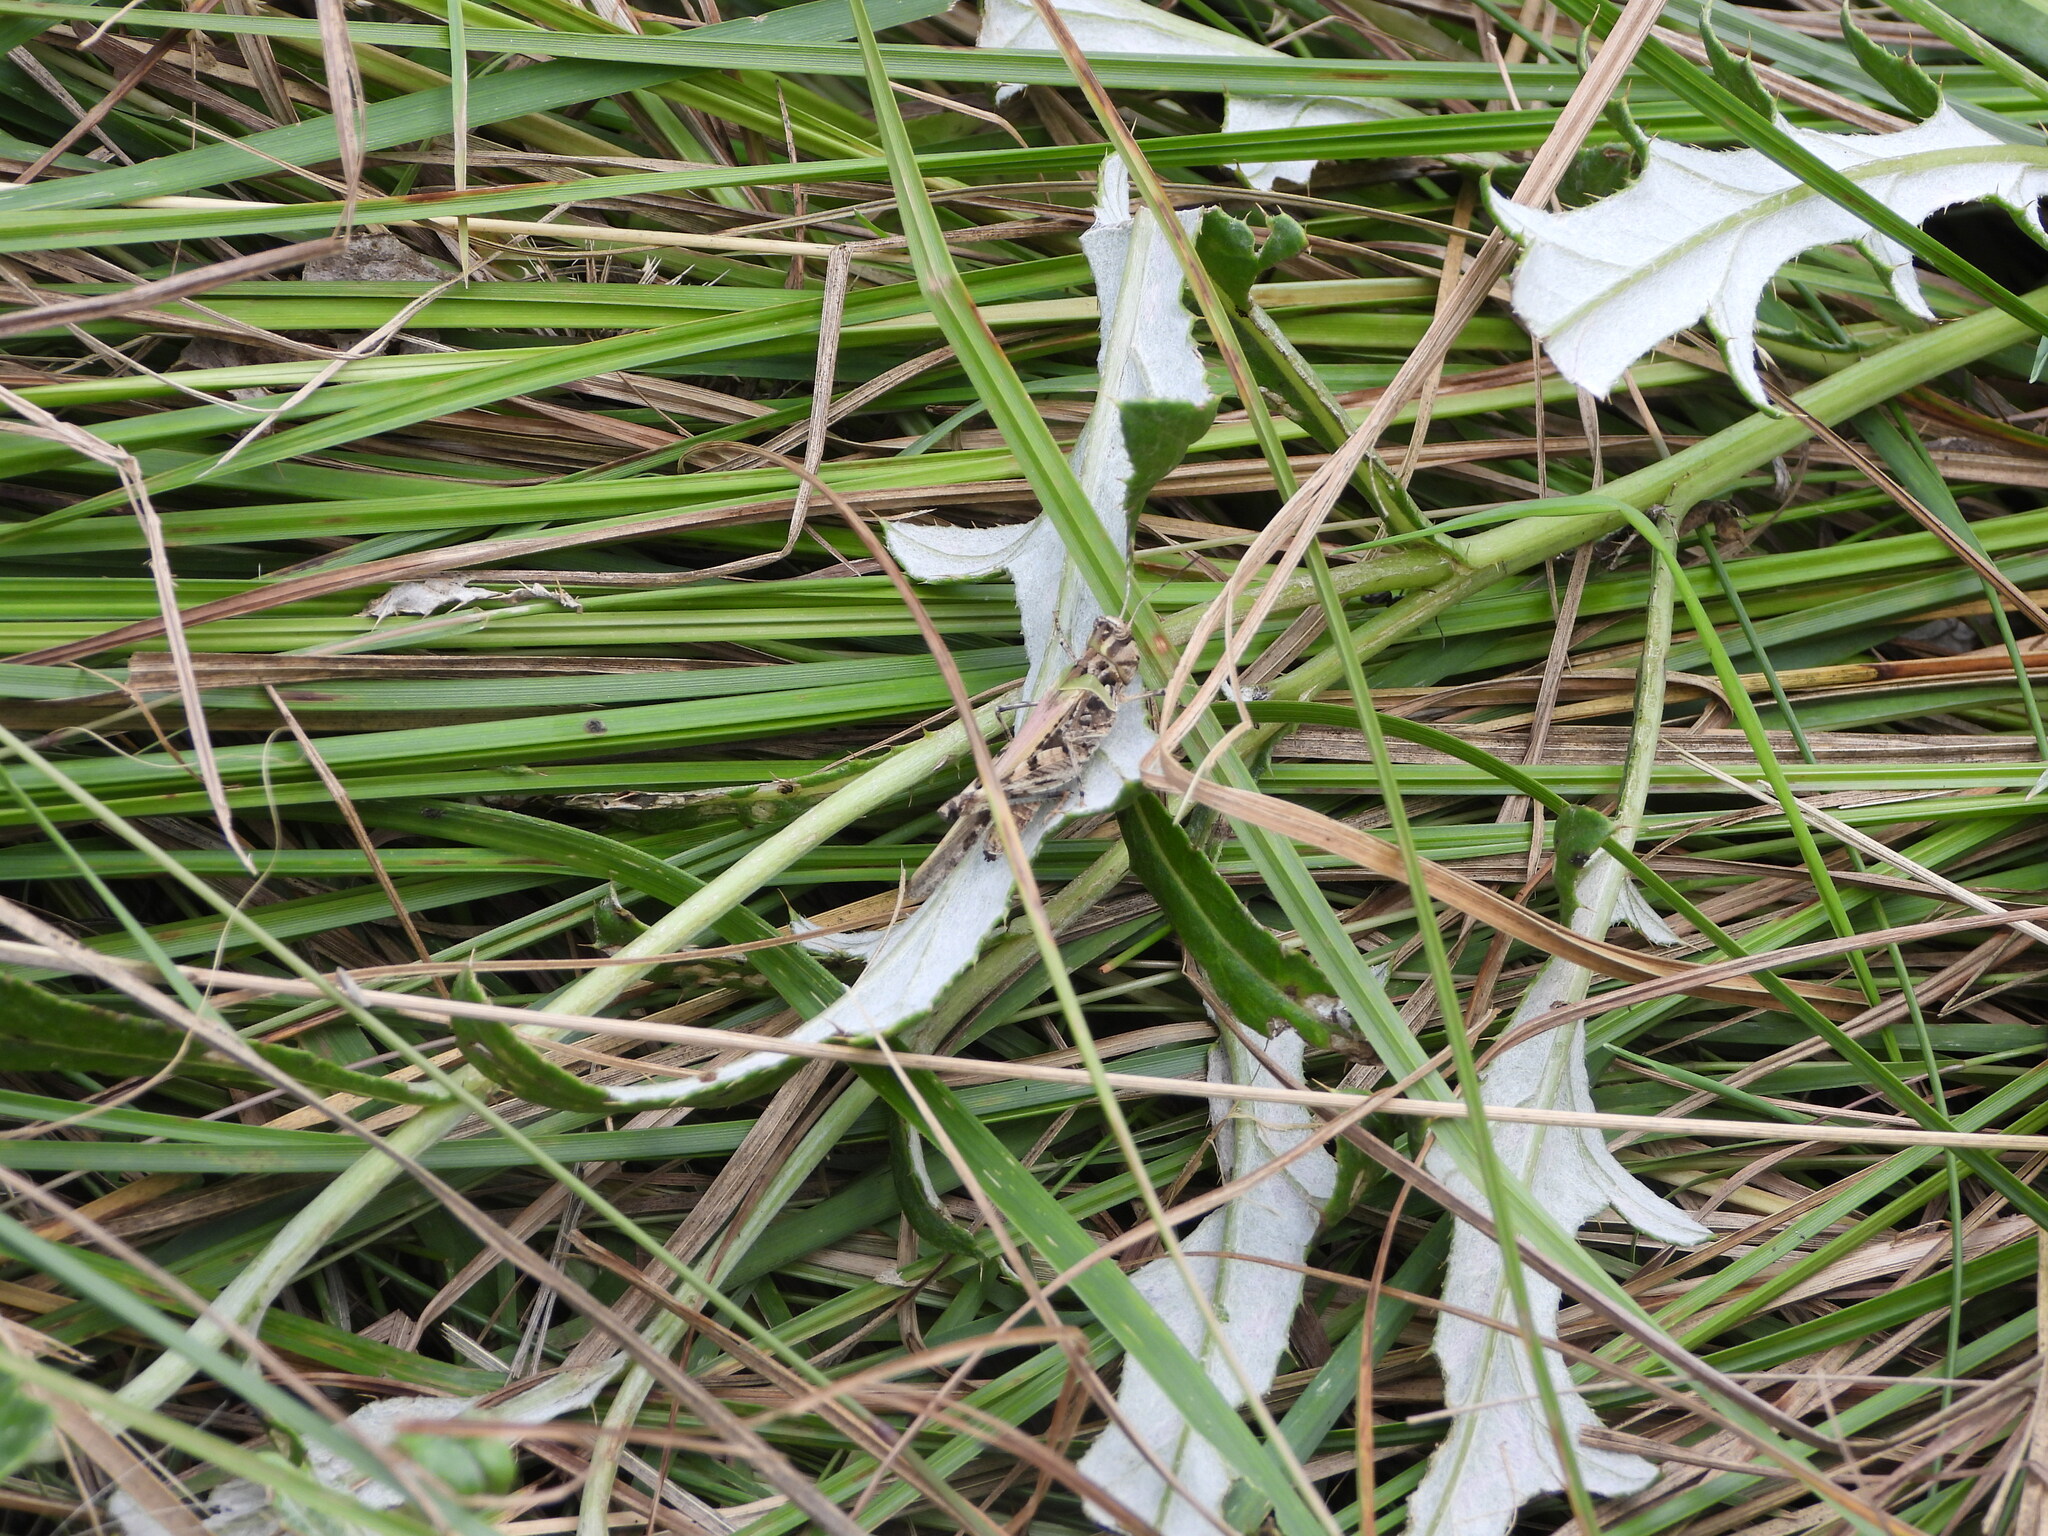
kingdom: Animalia
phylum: Arthropoda
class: Insecta
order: Orthoptera
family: Acrididae
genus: Trachyrhachys
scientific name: Trachyrhachys kiowa
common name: Kiowa grasshopper
